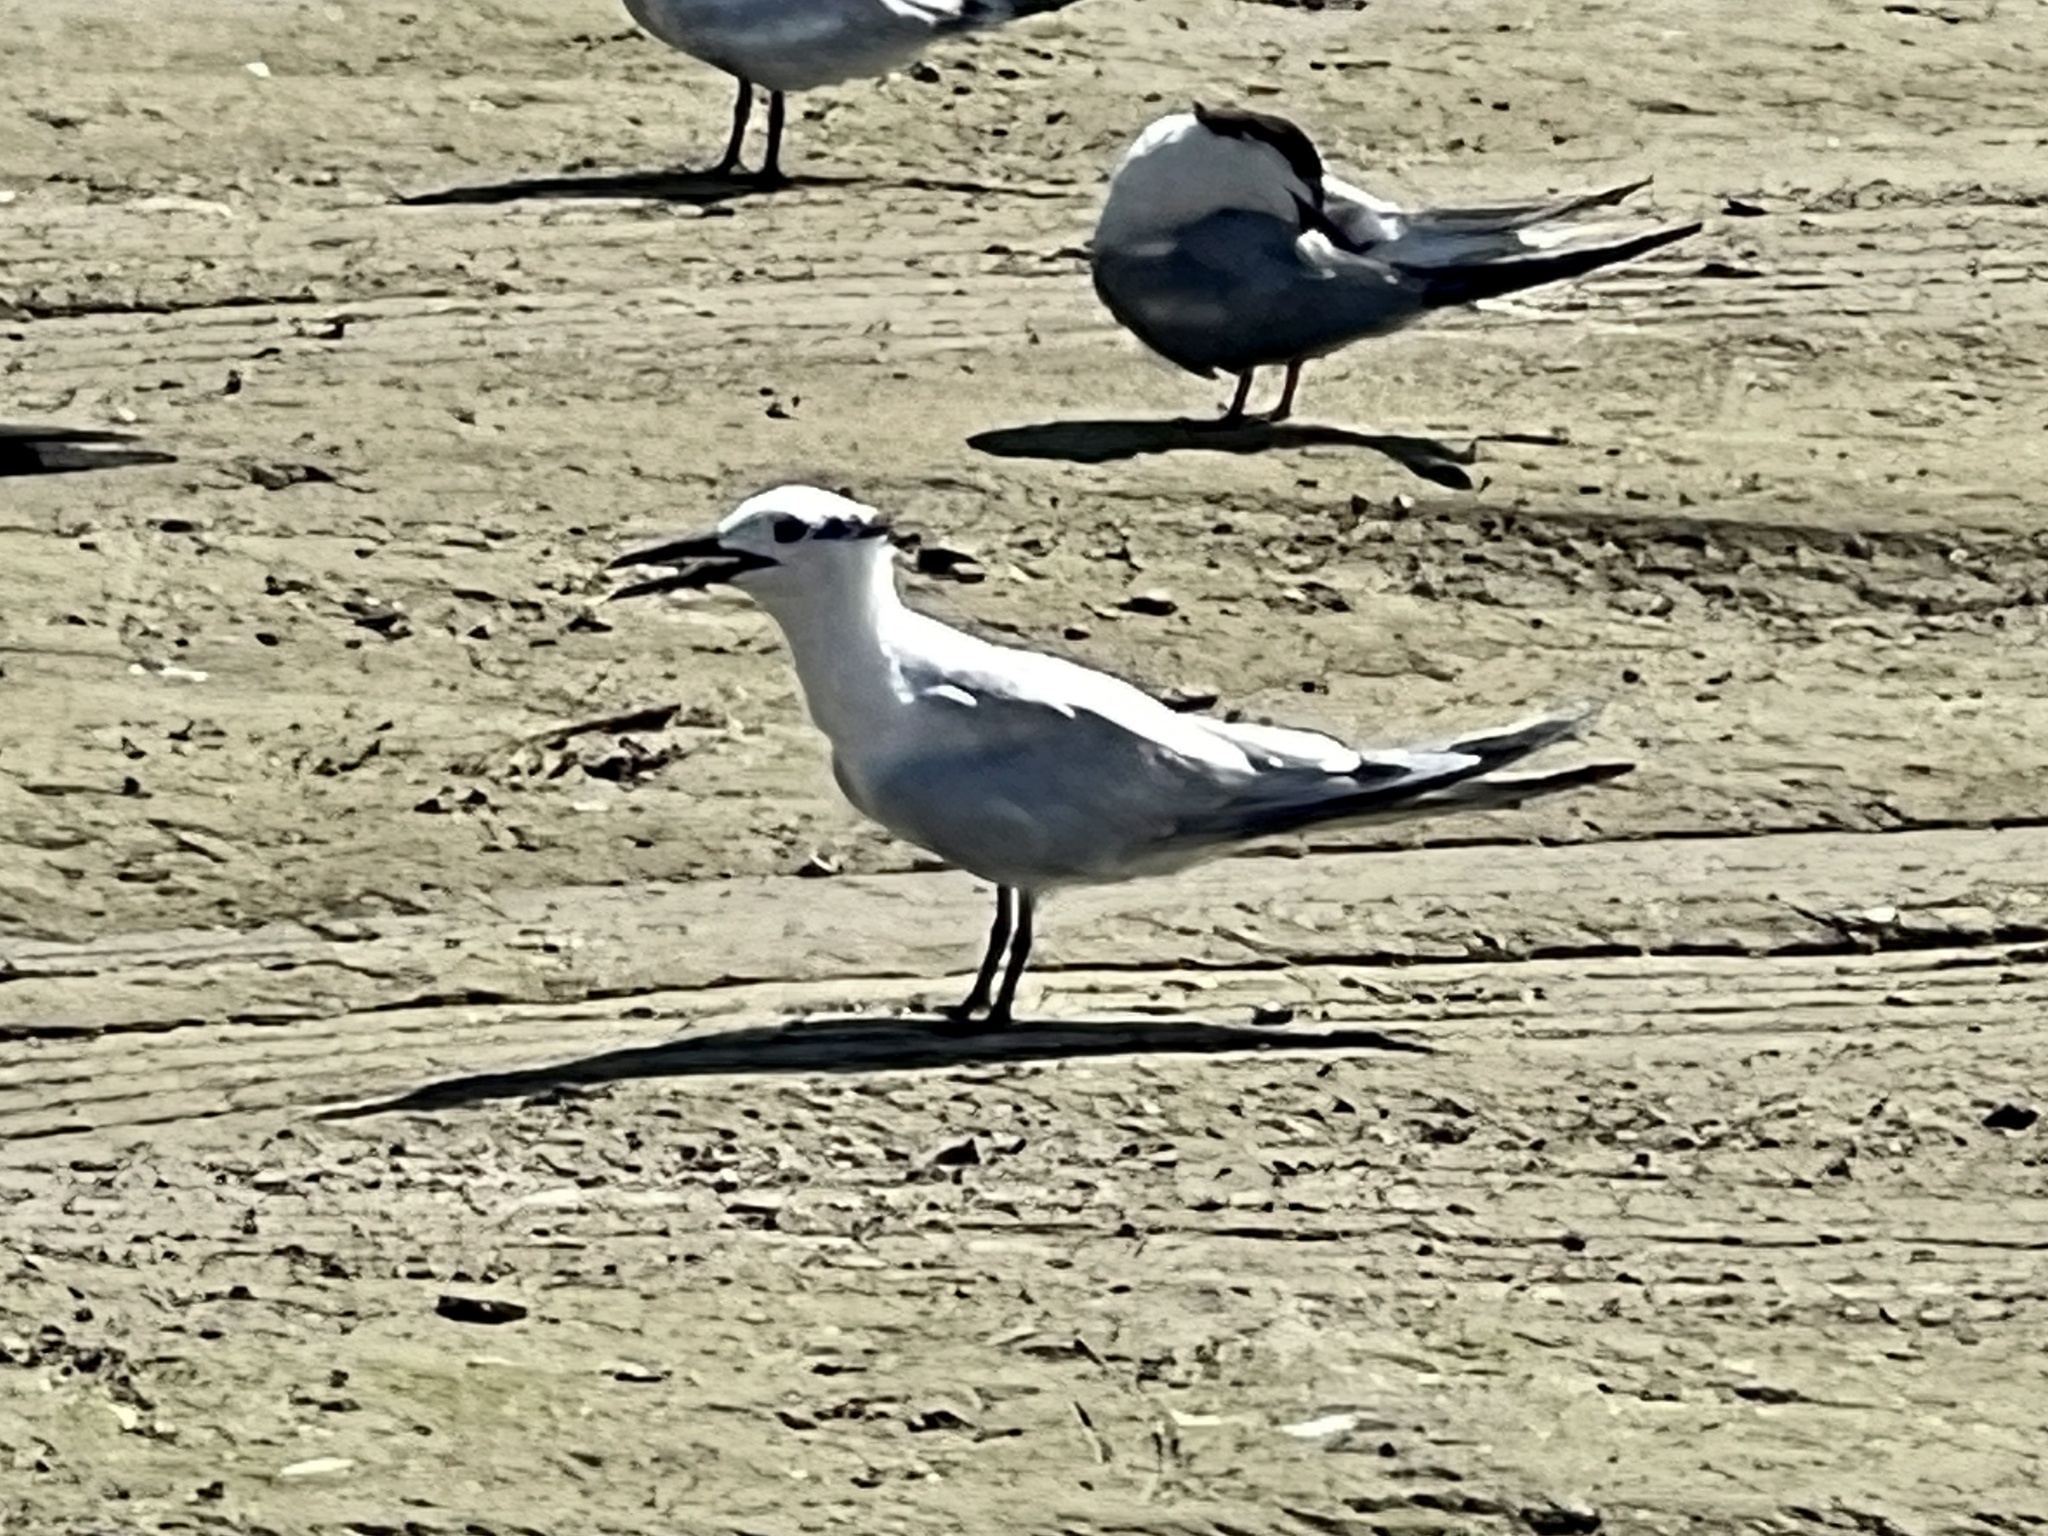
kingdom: Animalia
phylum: Chordata
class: Aves
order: Charadriiformes
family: Laridae
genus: Thalasseus
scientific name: Thalasseus sandvicensis
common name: Sandwich tern
